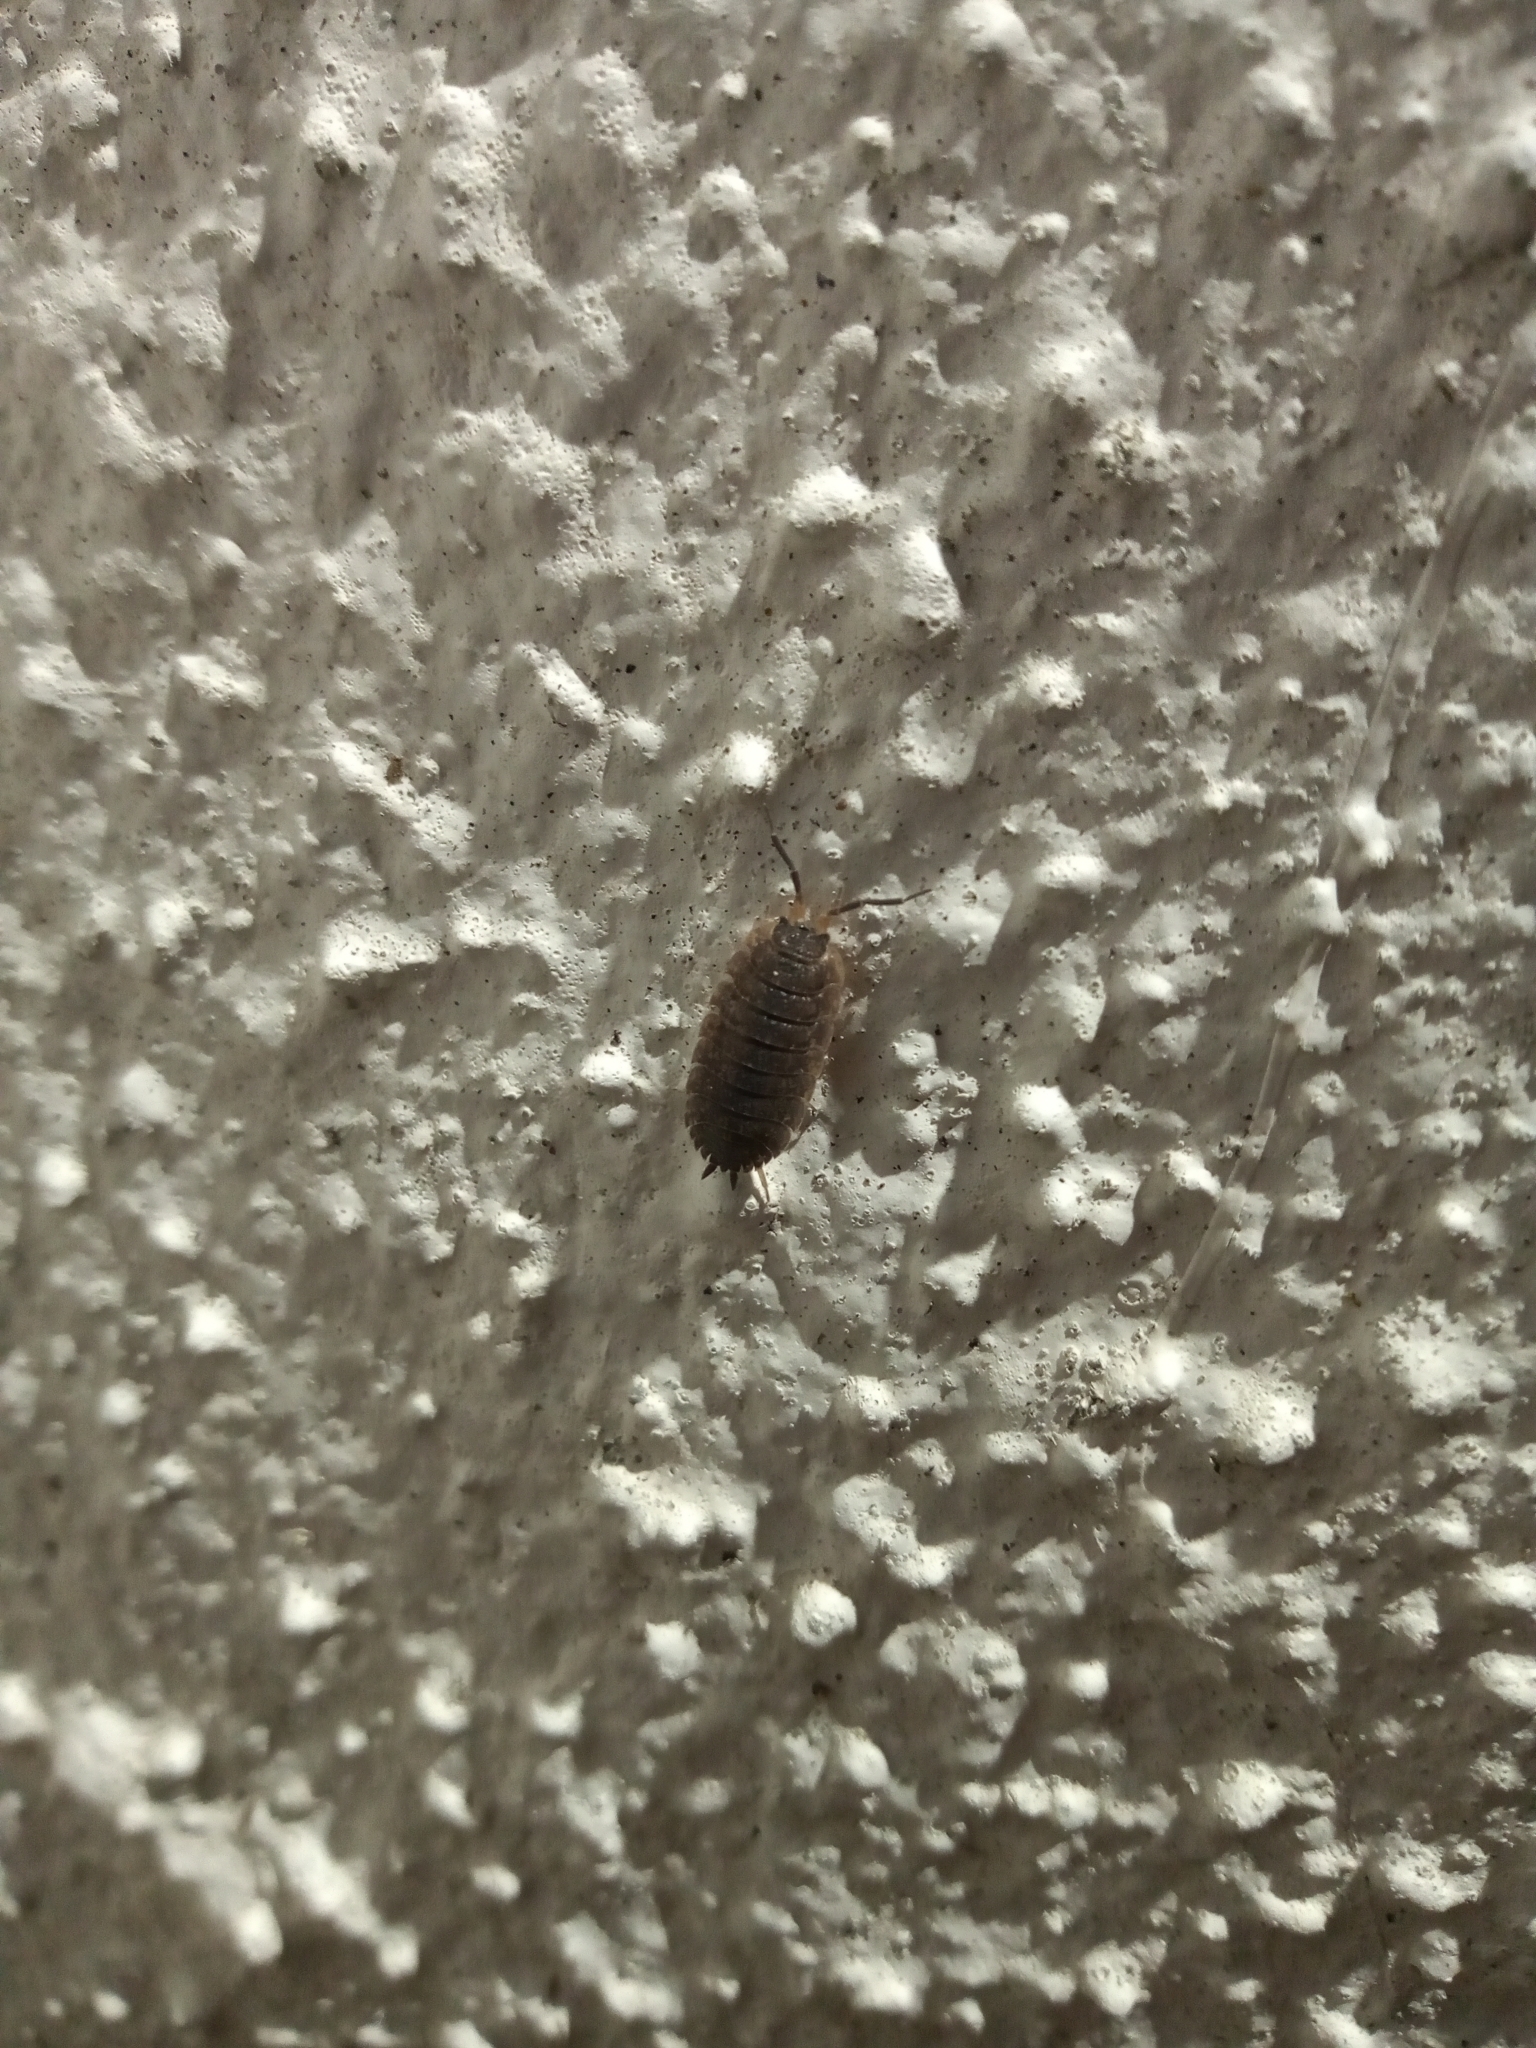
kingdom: Animalia
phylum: Arthropoda
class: Malacostraca
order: Isopoda
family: Porcellionidae
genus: Porcellio
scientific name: Porcellio scaber
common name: Common rough woodlouse
